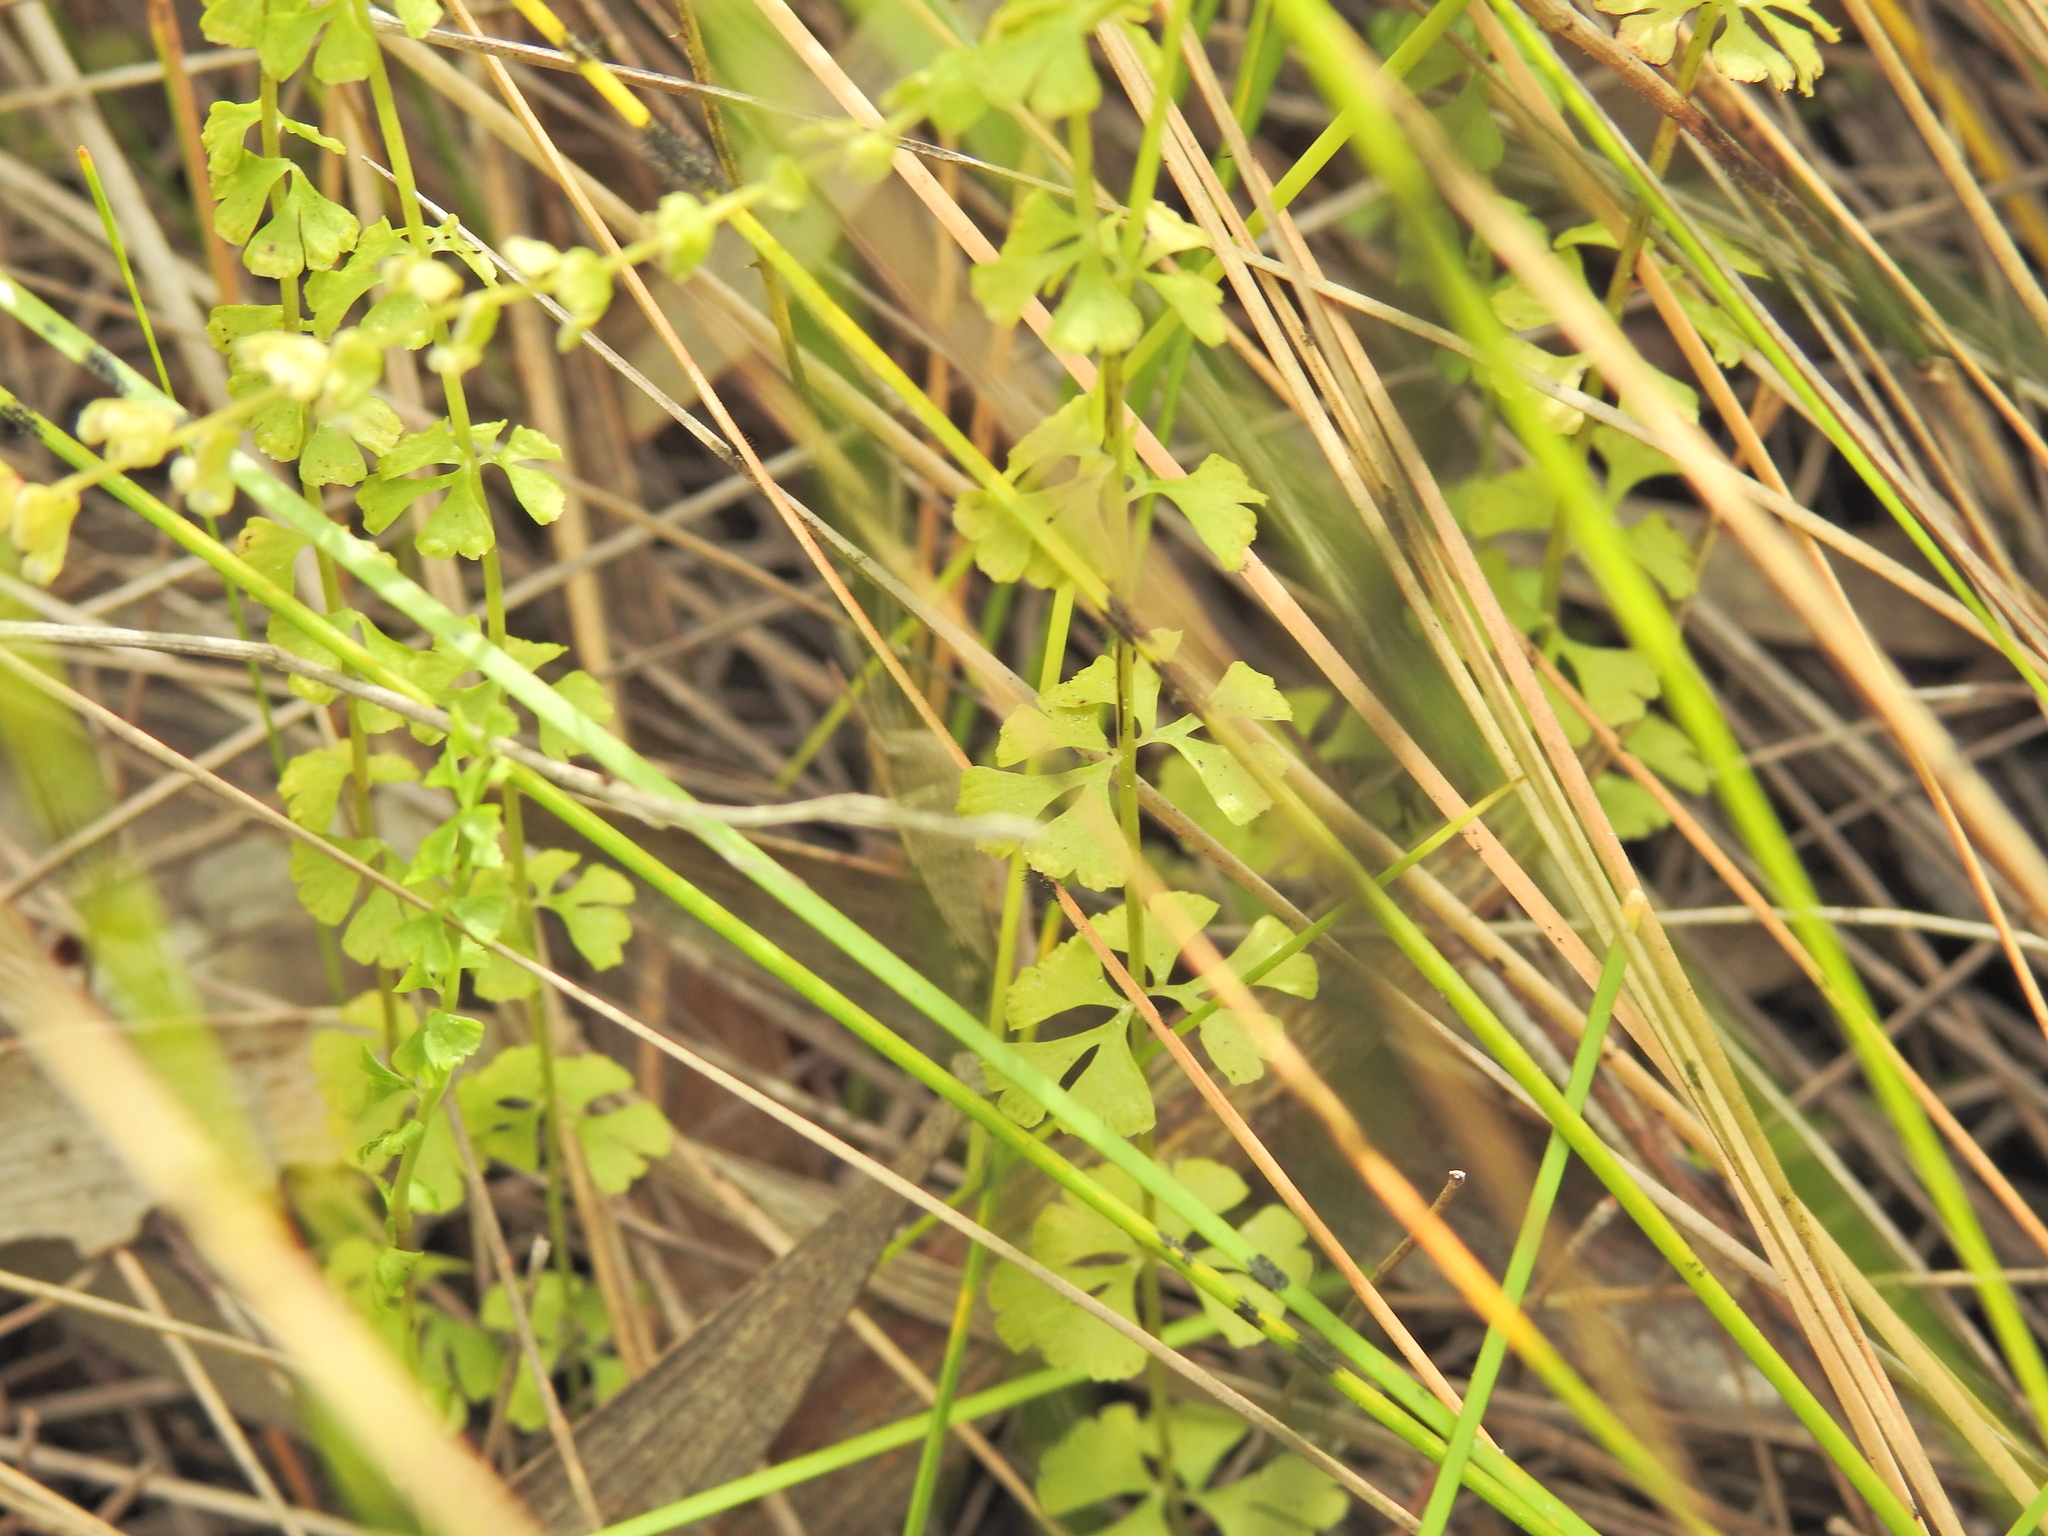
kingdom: Plantae
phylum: Tracheophyta
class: Polypodiopsida
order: Polypodiales
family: Lindsaeaceae
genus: Lindsaea
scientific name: Lindsaea incisa
